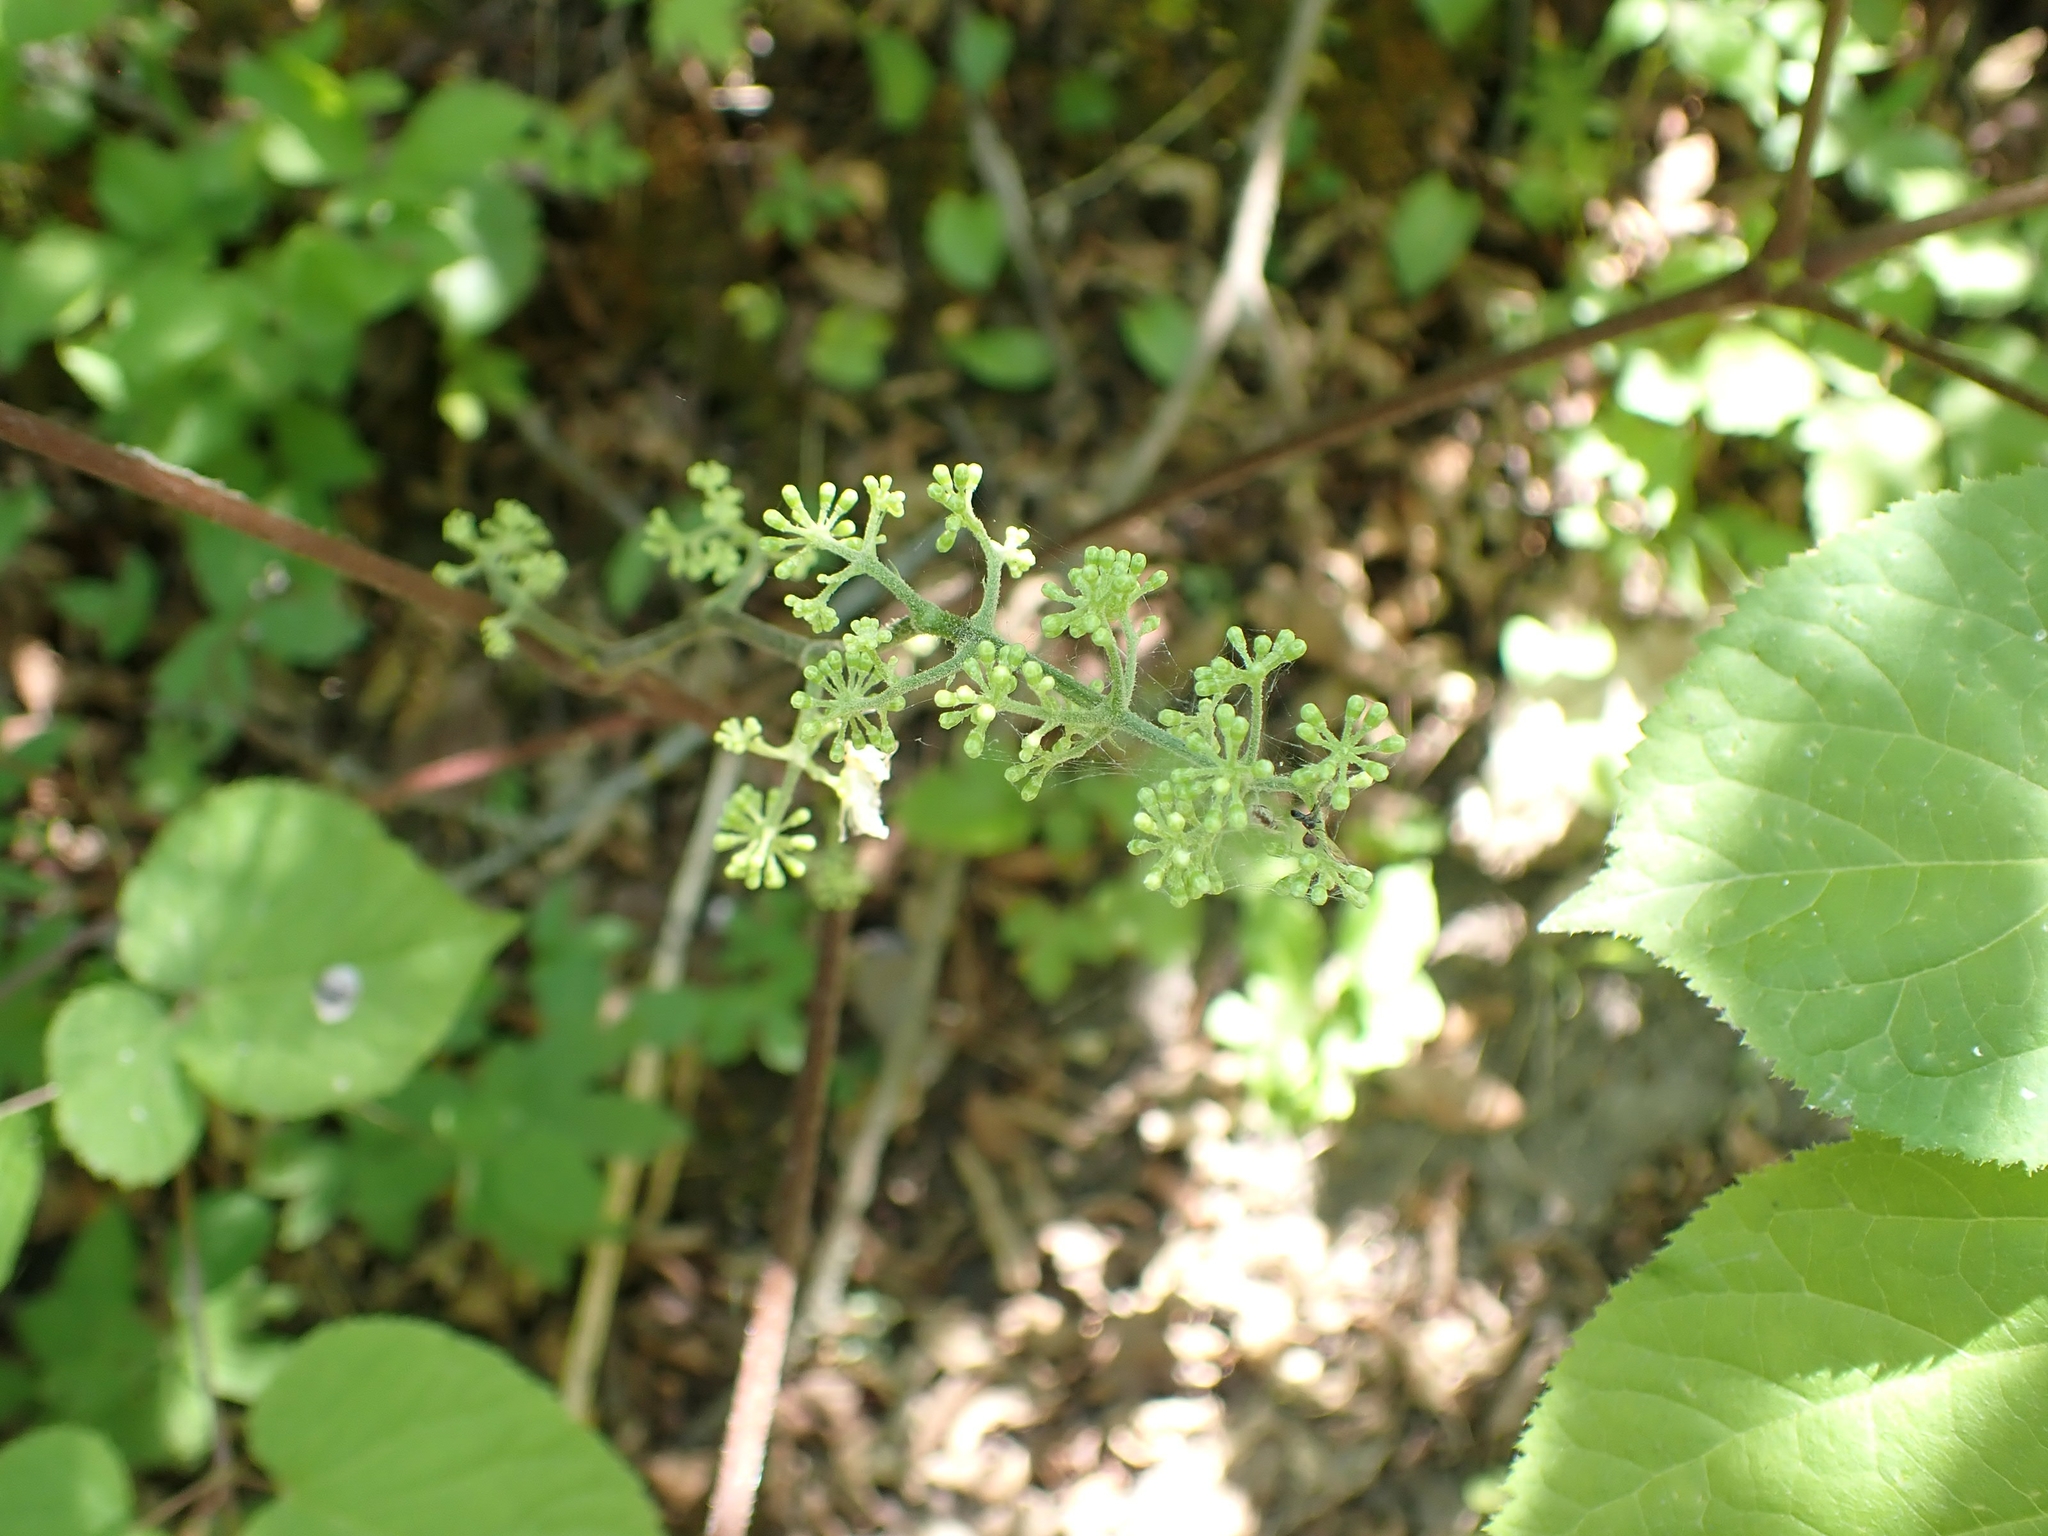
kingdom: Plantae
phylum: Tracheophyta
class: Magnoliopsida
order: Apiales
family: Araliaceae
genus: Aralia
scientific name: Aralia racemosa
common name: American-spikenard
